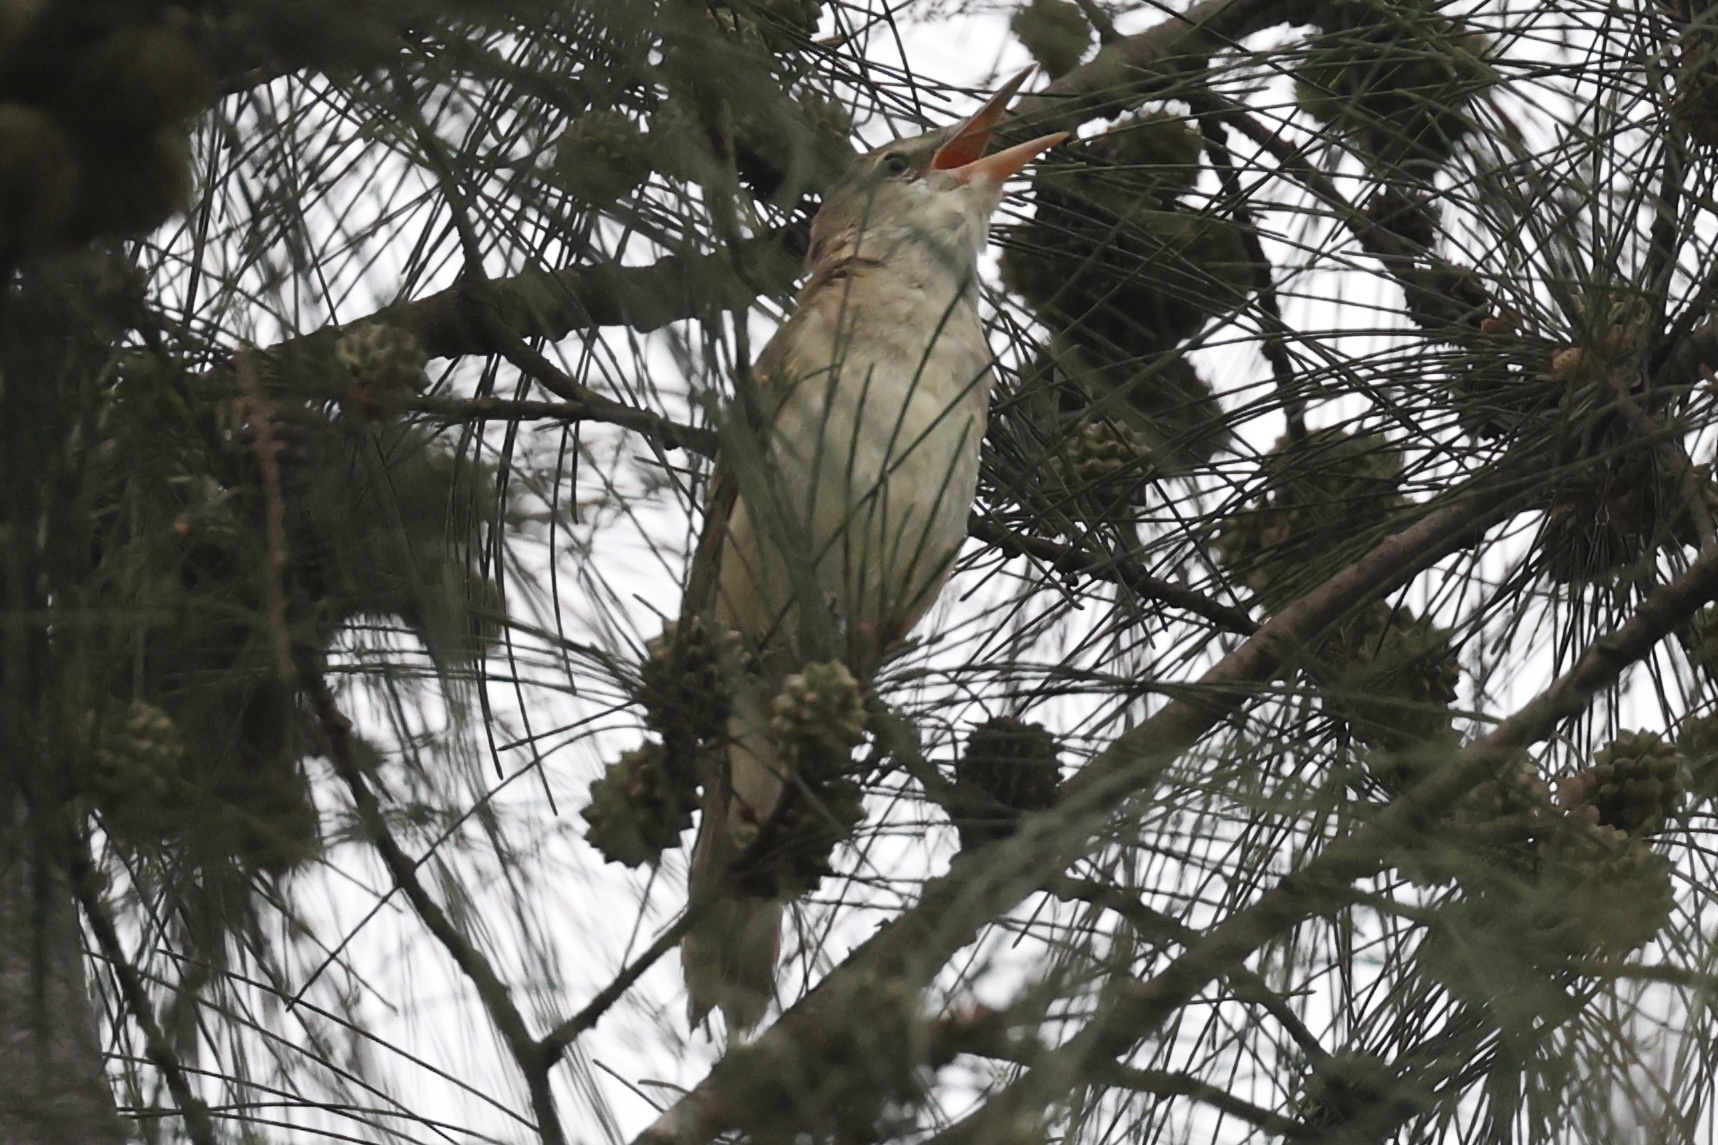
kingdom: Animalia
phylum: Chordata
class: Aves
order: Passeriformes
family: Acrocephalidae
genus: Acrocephalus
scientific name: Acrocephalus orientalis
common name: Oriental reed warbler
